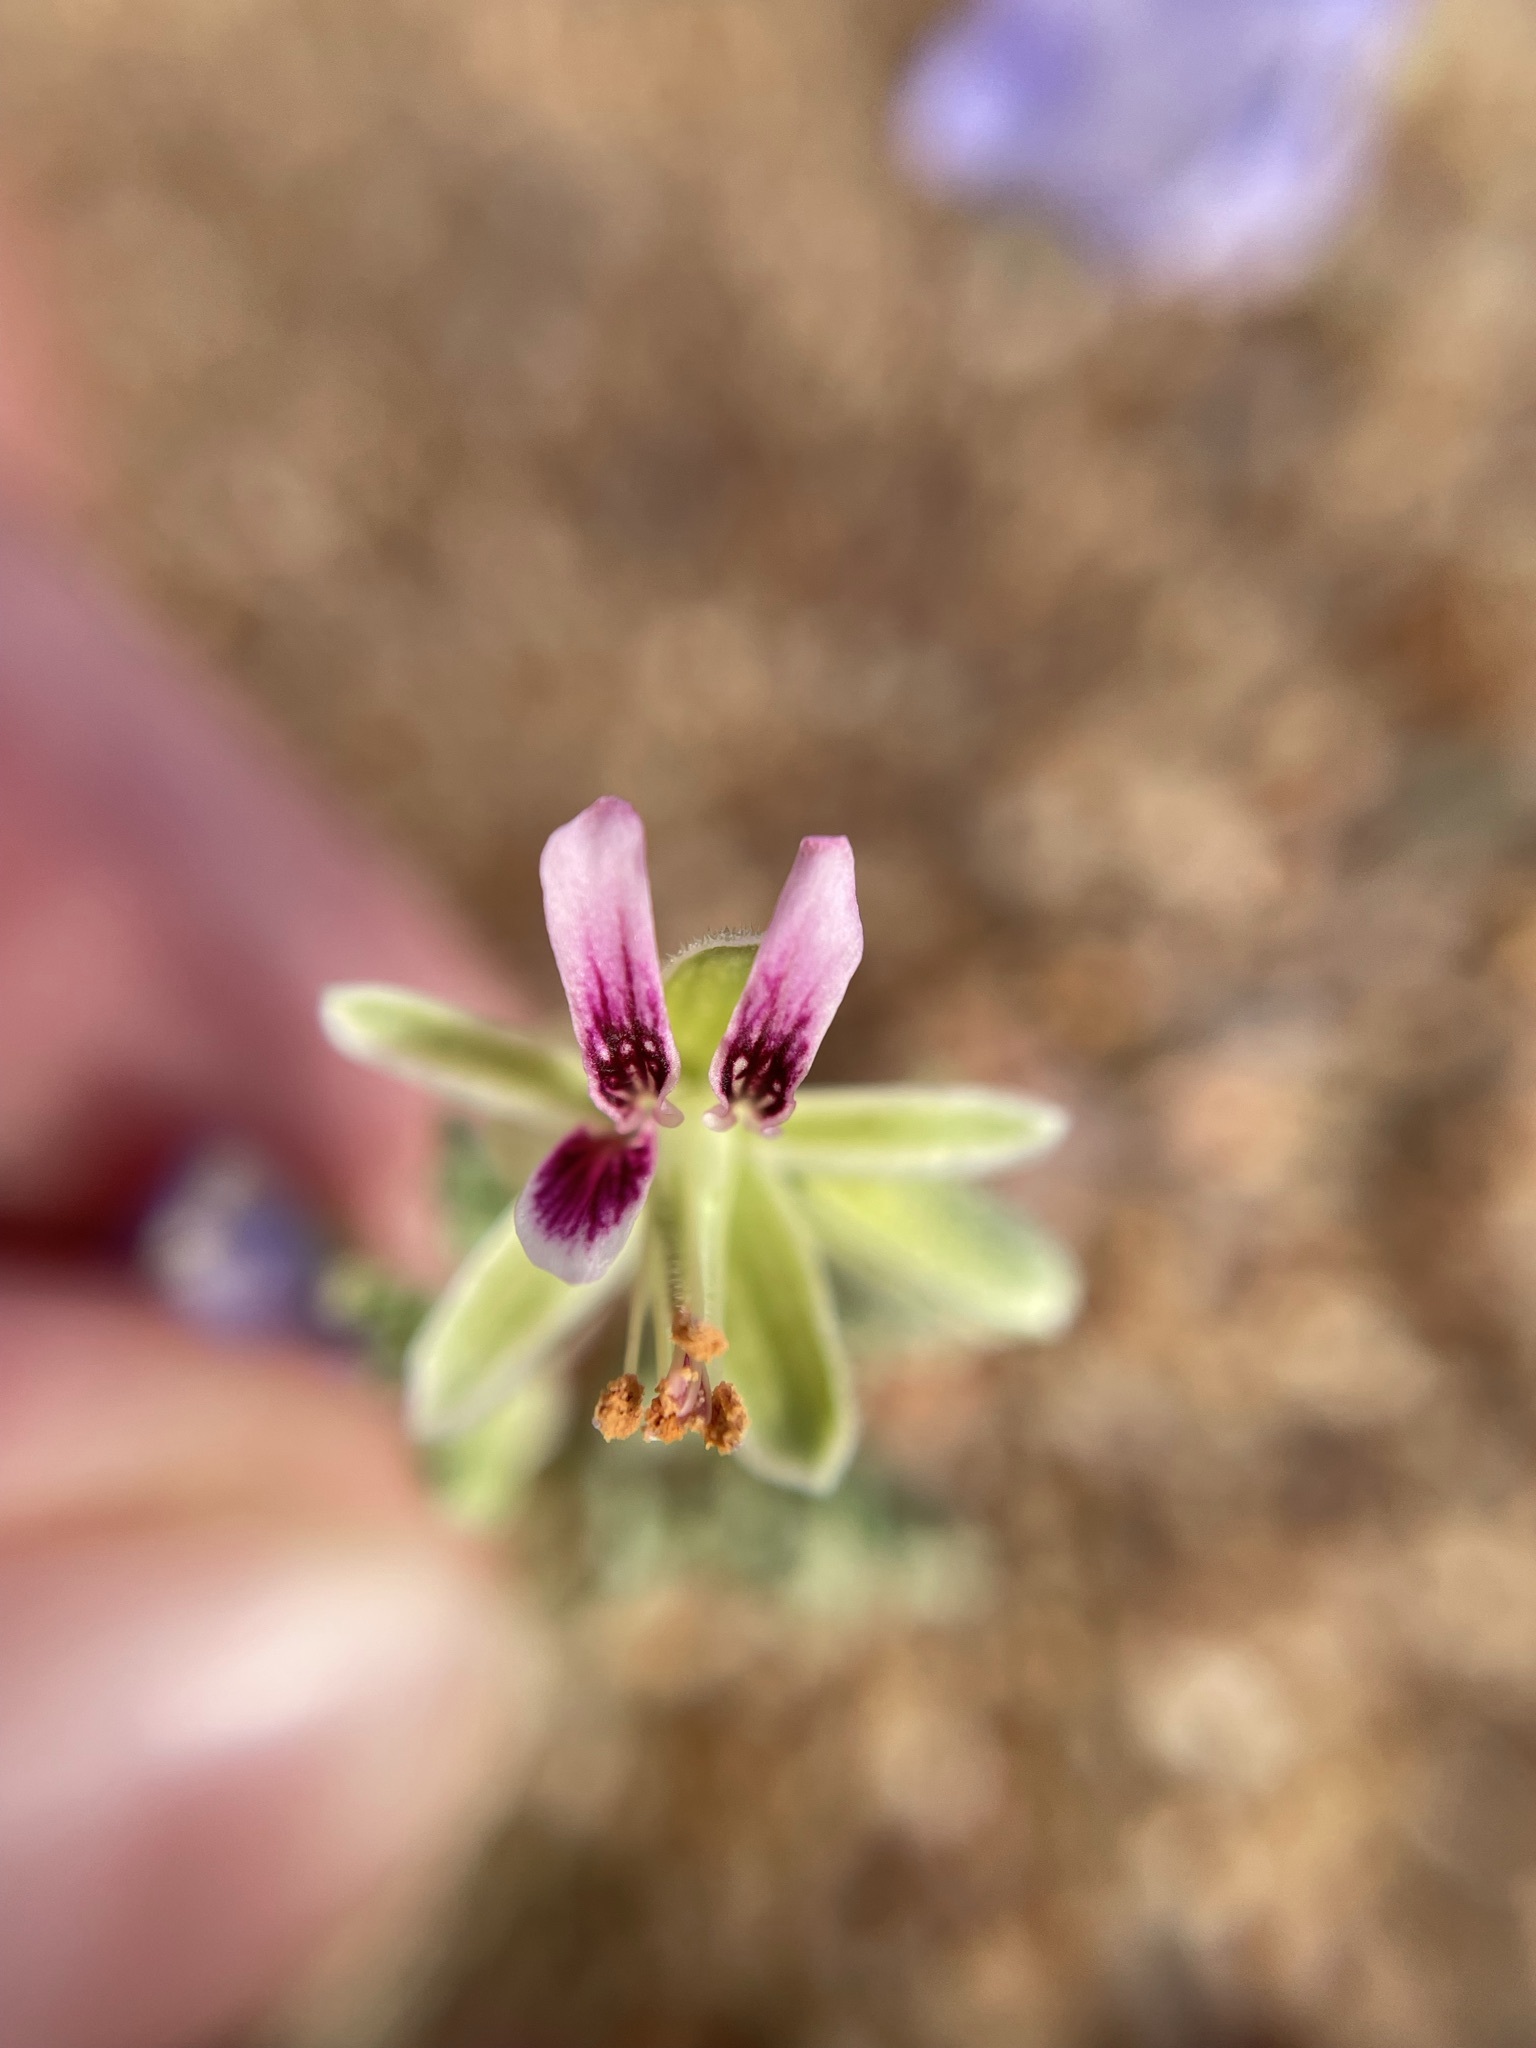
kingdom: Plantae
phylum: Tracheophyta
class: Magnoliopsida
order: Geraniales
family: Geraniaceae
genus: Pelargonium
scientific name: Pelargonium redactum
